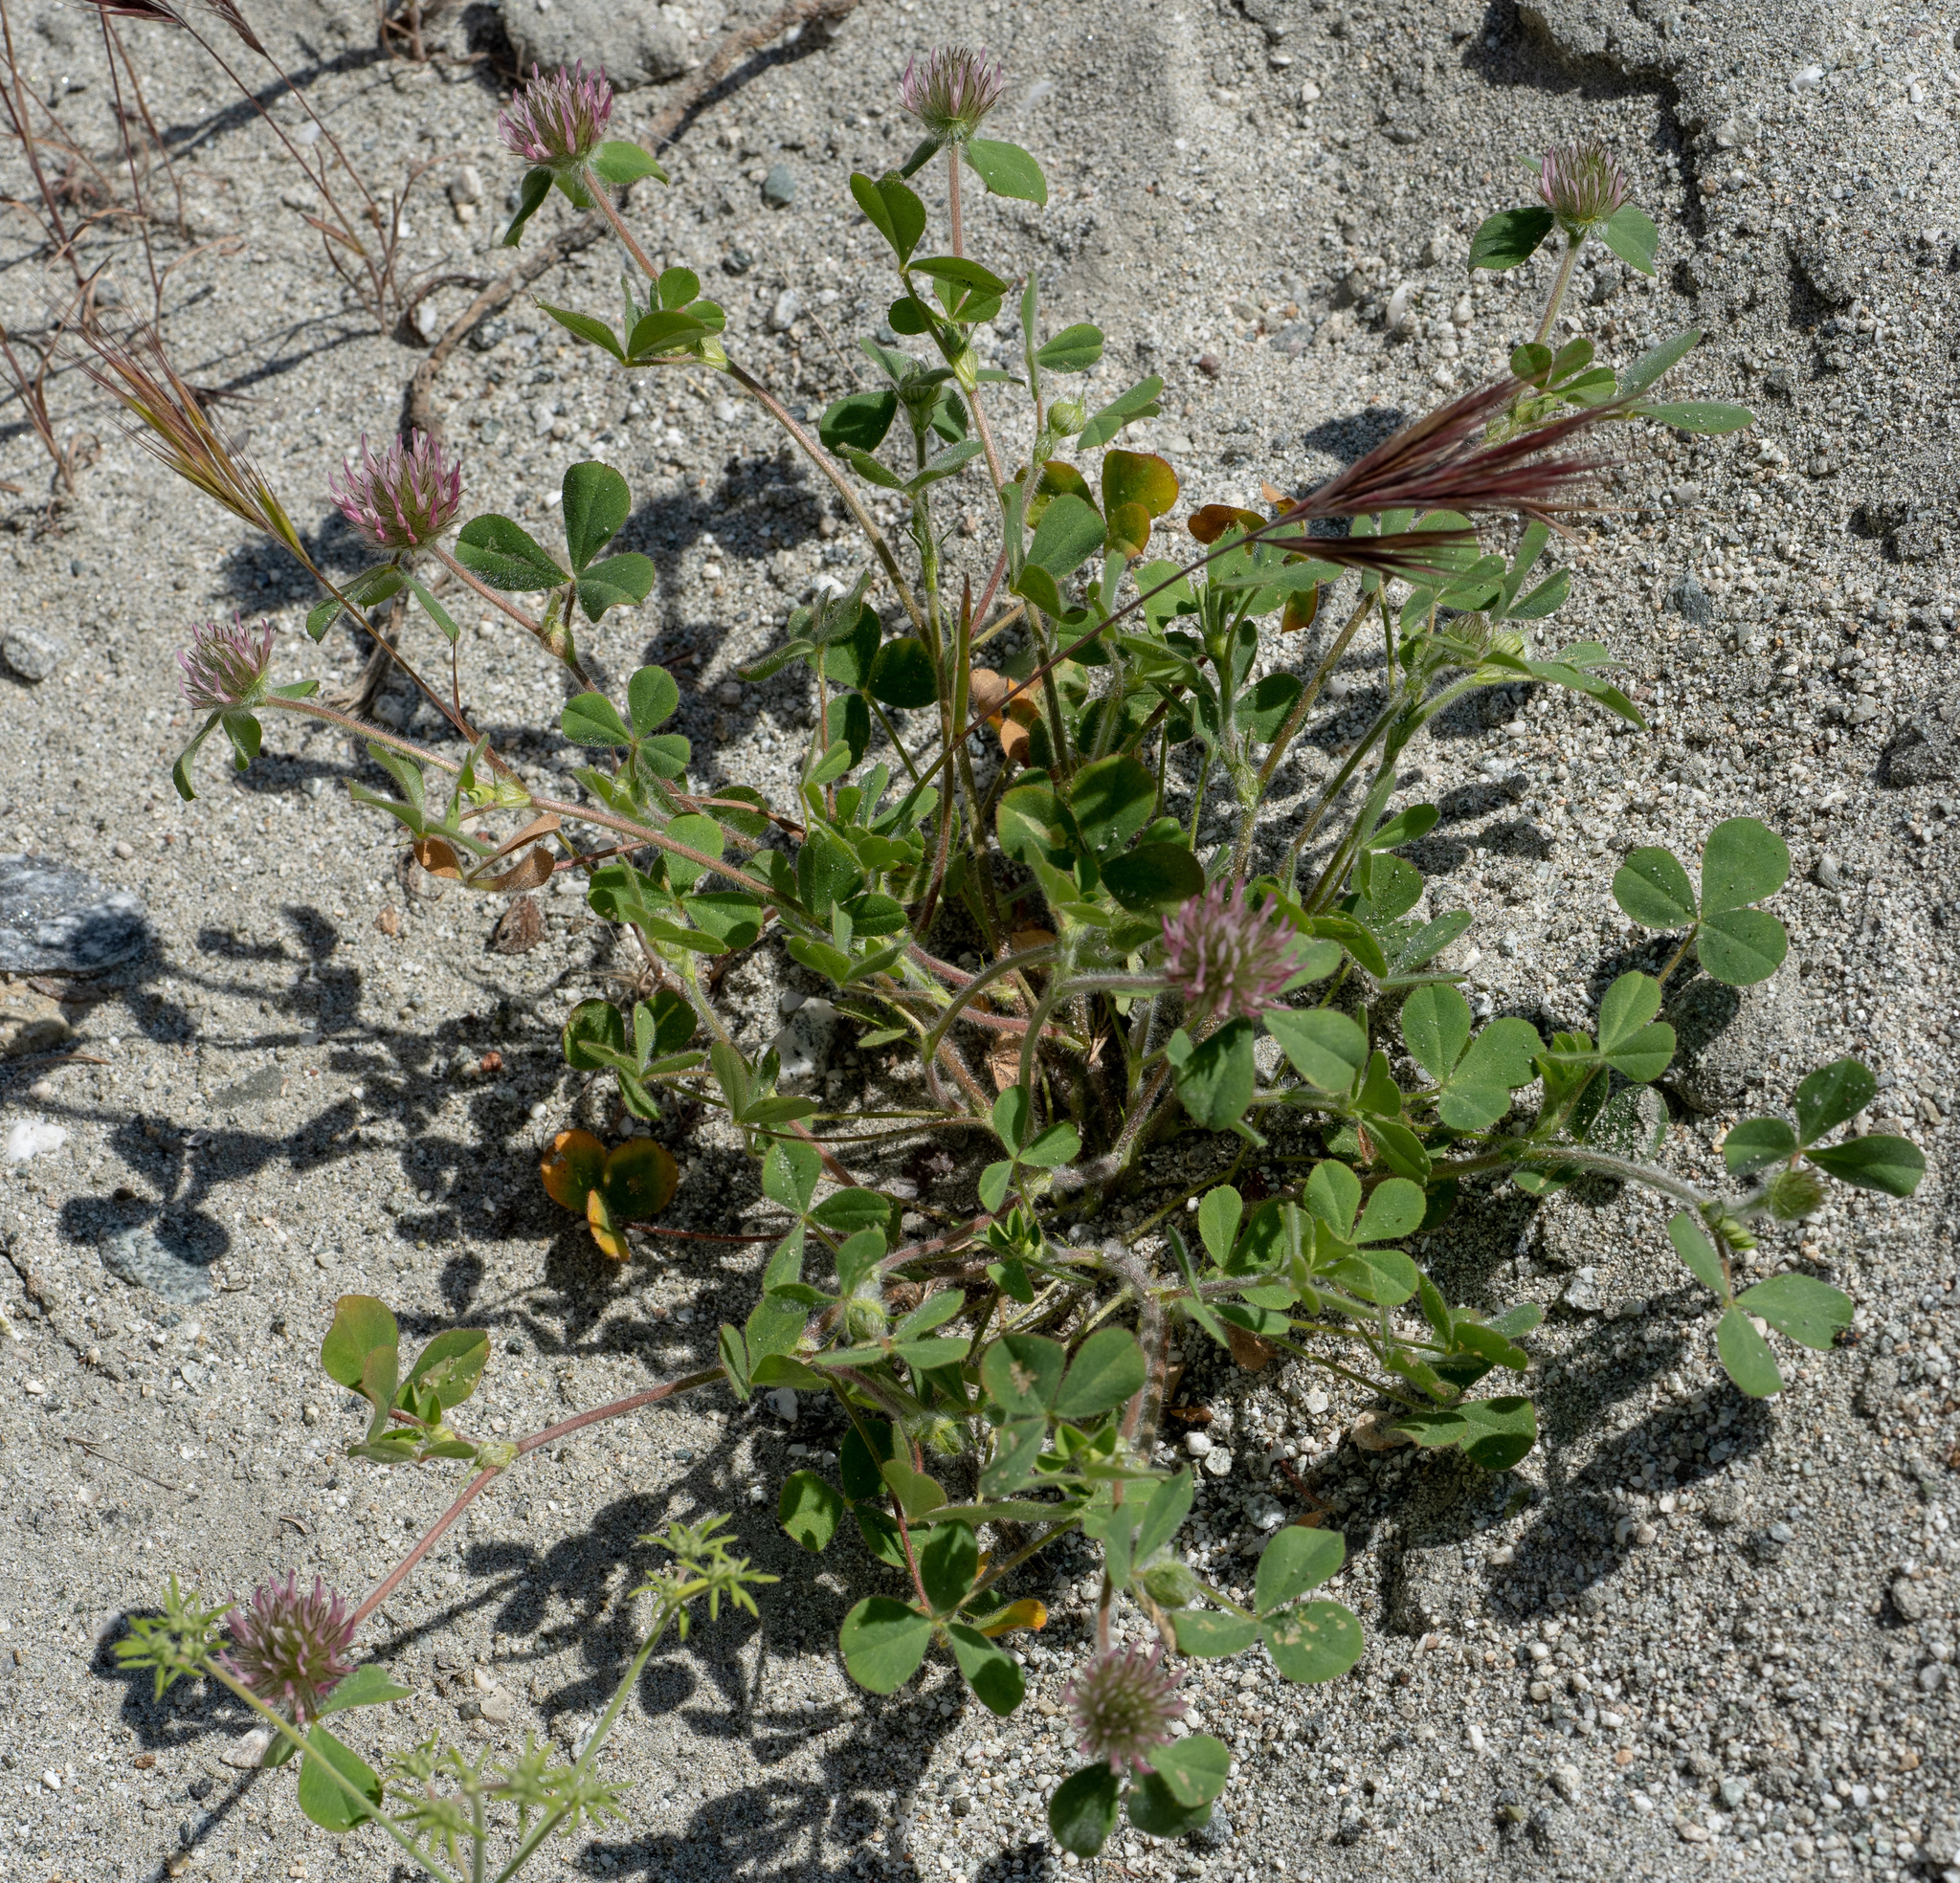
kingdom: Plantae
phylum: Tracheophyta
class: Magnoliopsida
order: Fabales
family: Fabaceae
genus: Trifolium
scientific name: Trifolium hirtum
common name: Rose clover
